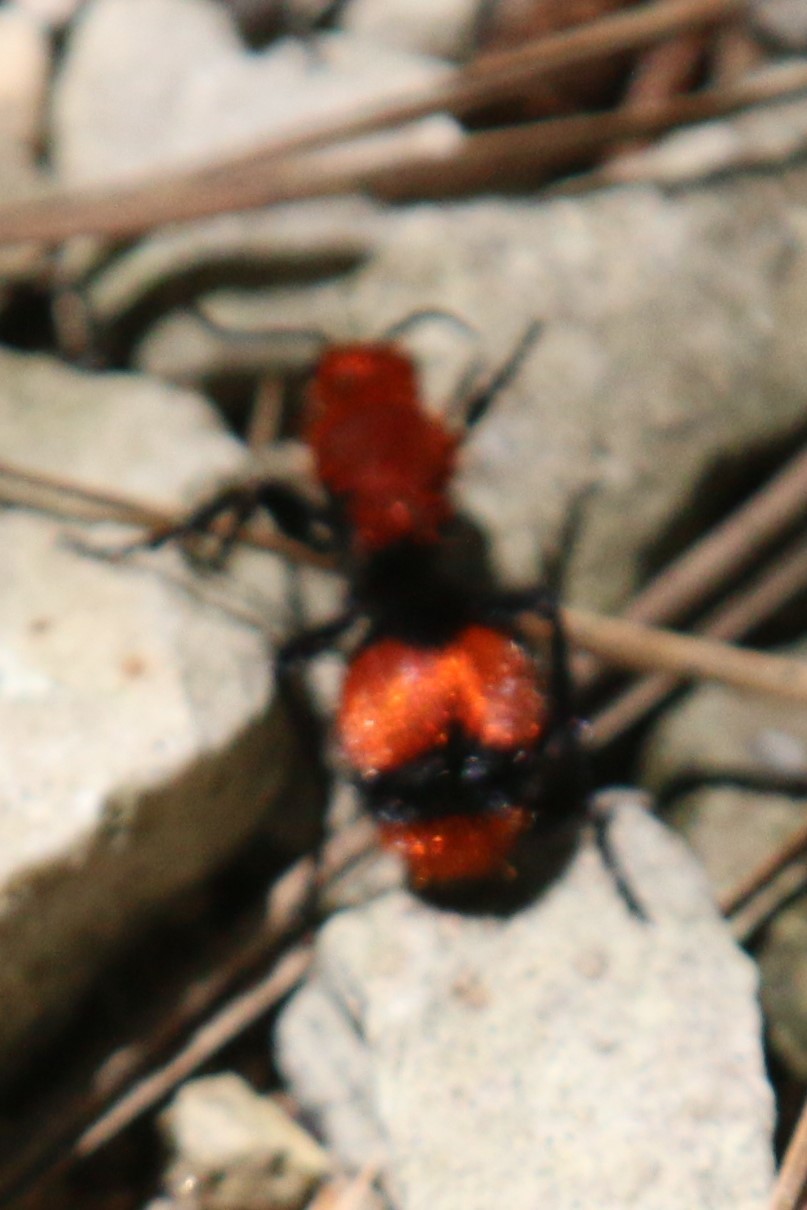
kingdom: Animalia
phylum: Arthropoda
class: Insecta
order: Hymenoptera
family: Mutillidae
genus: Dasymutilla
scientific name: Dasymutilla occidentalis
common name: Common eastern velvet ant
